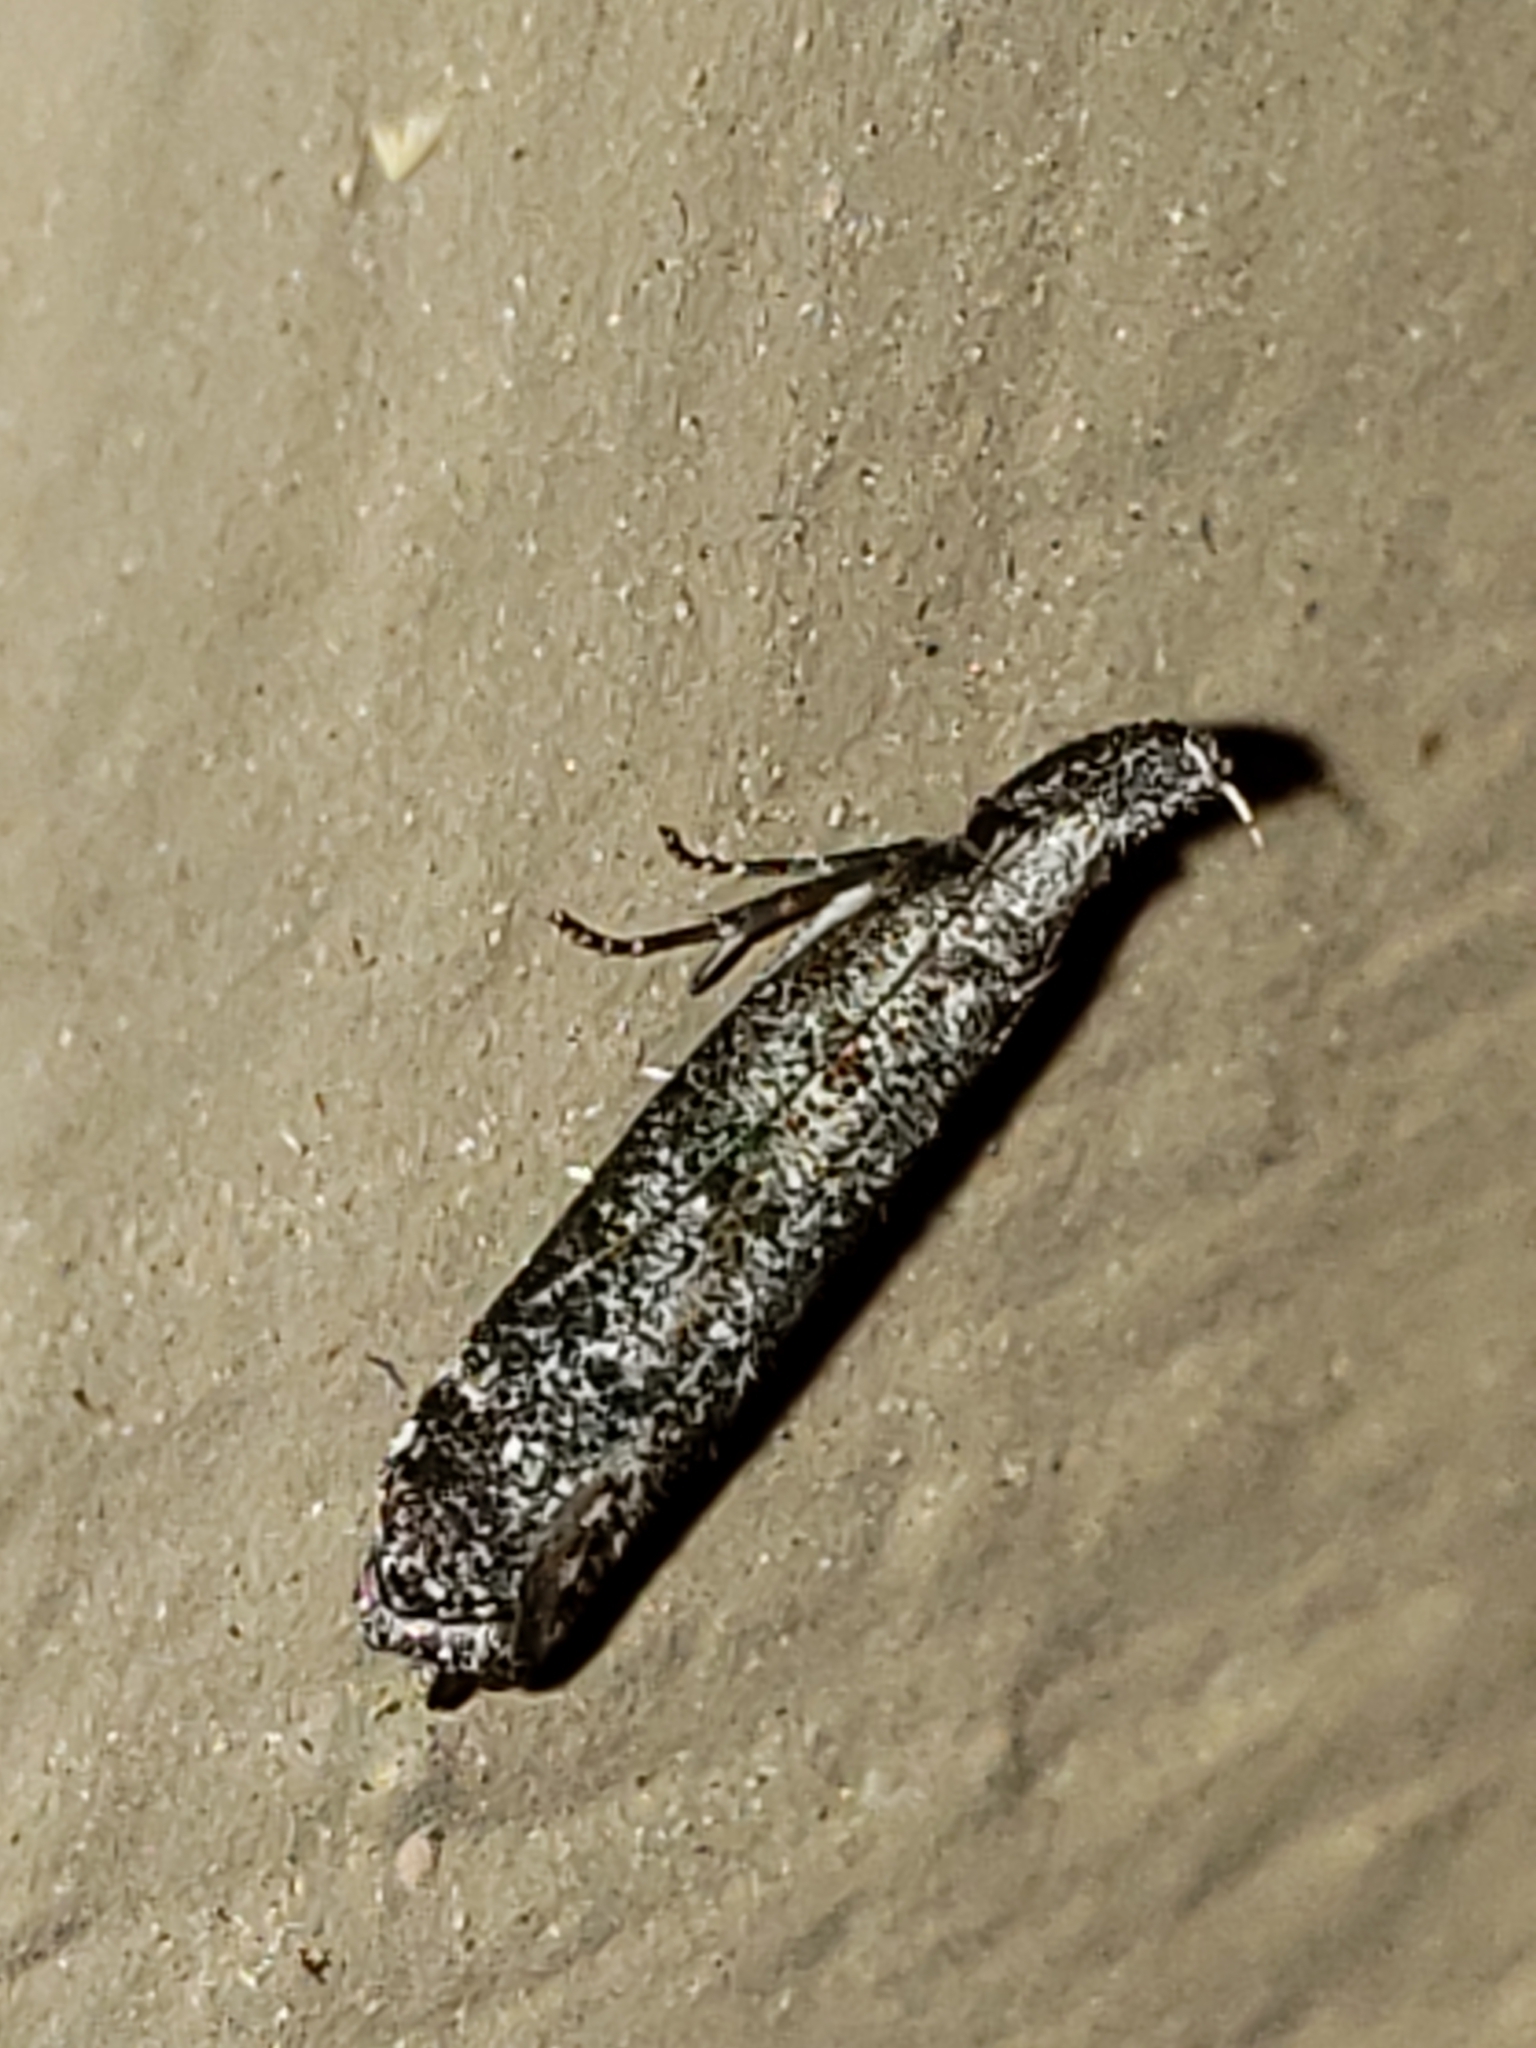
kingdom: Animalia
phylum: Arthropoda
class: Insecta
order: Lepidoptera
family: Gelechiidae
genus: Dichomeris
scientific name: Dichomeris inversella
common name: Inverse dichomeris moth
